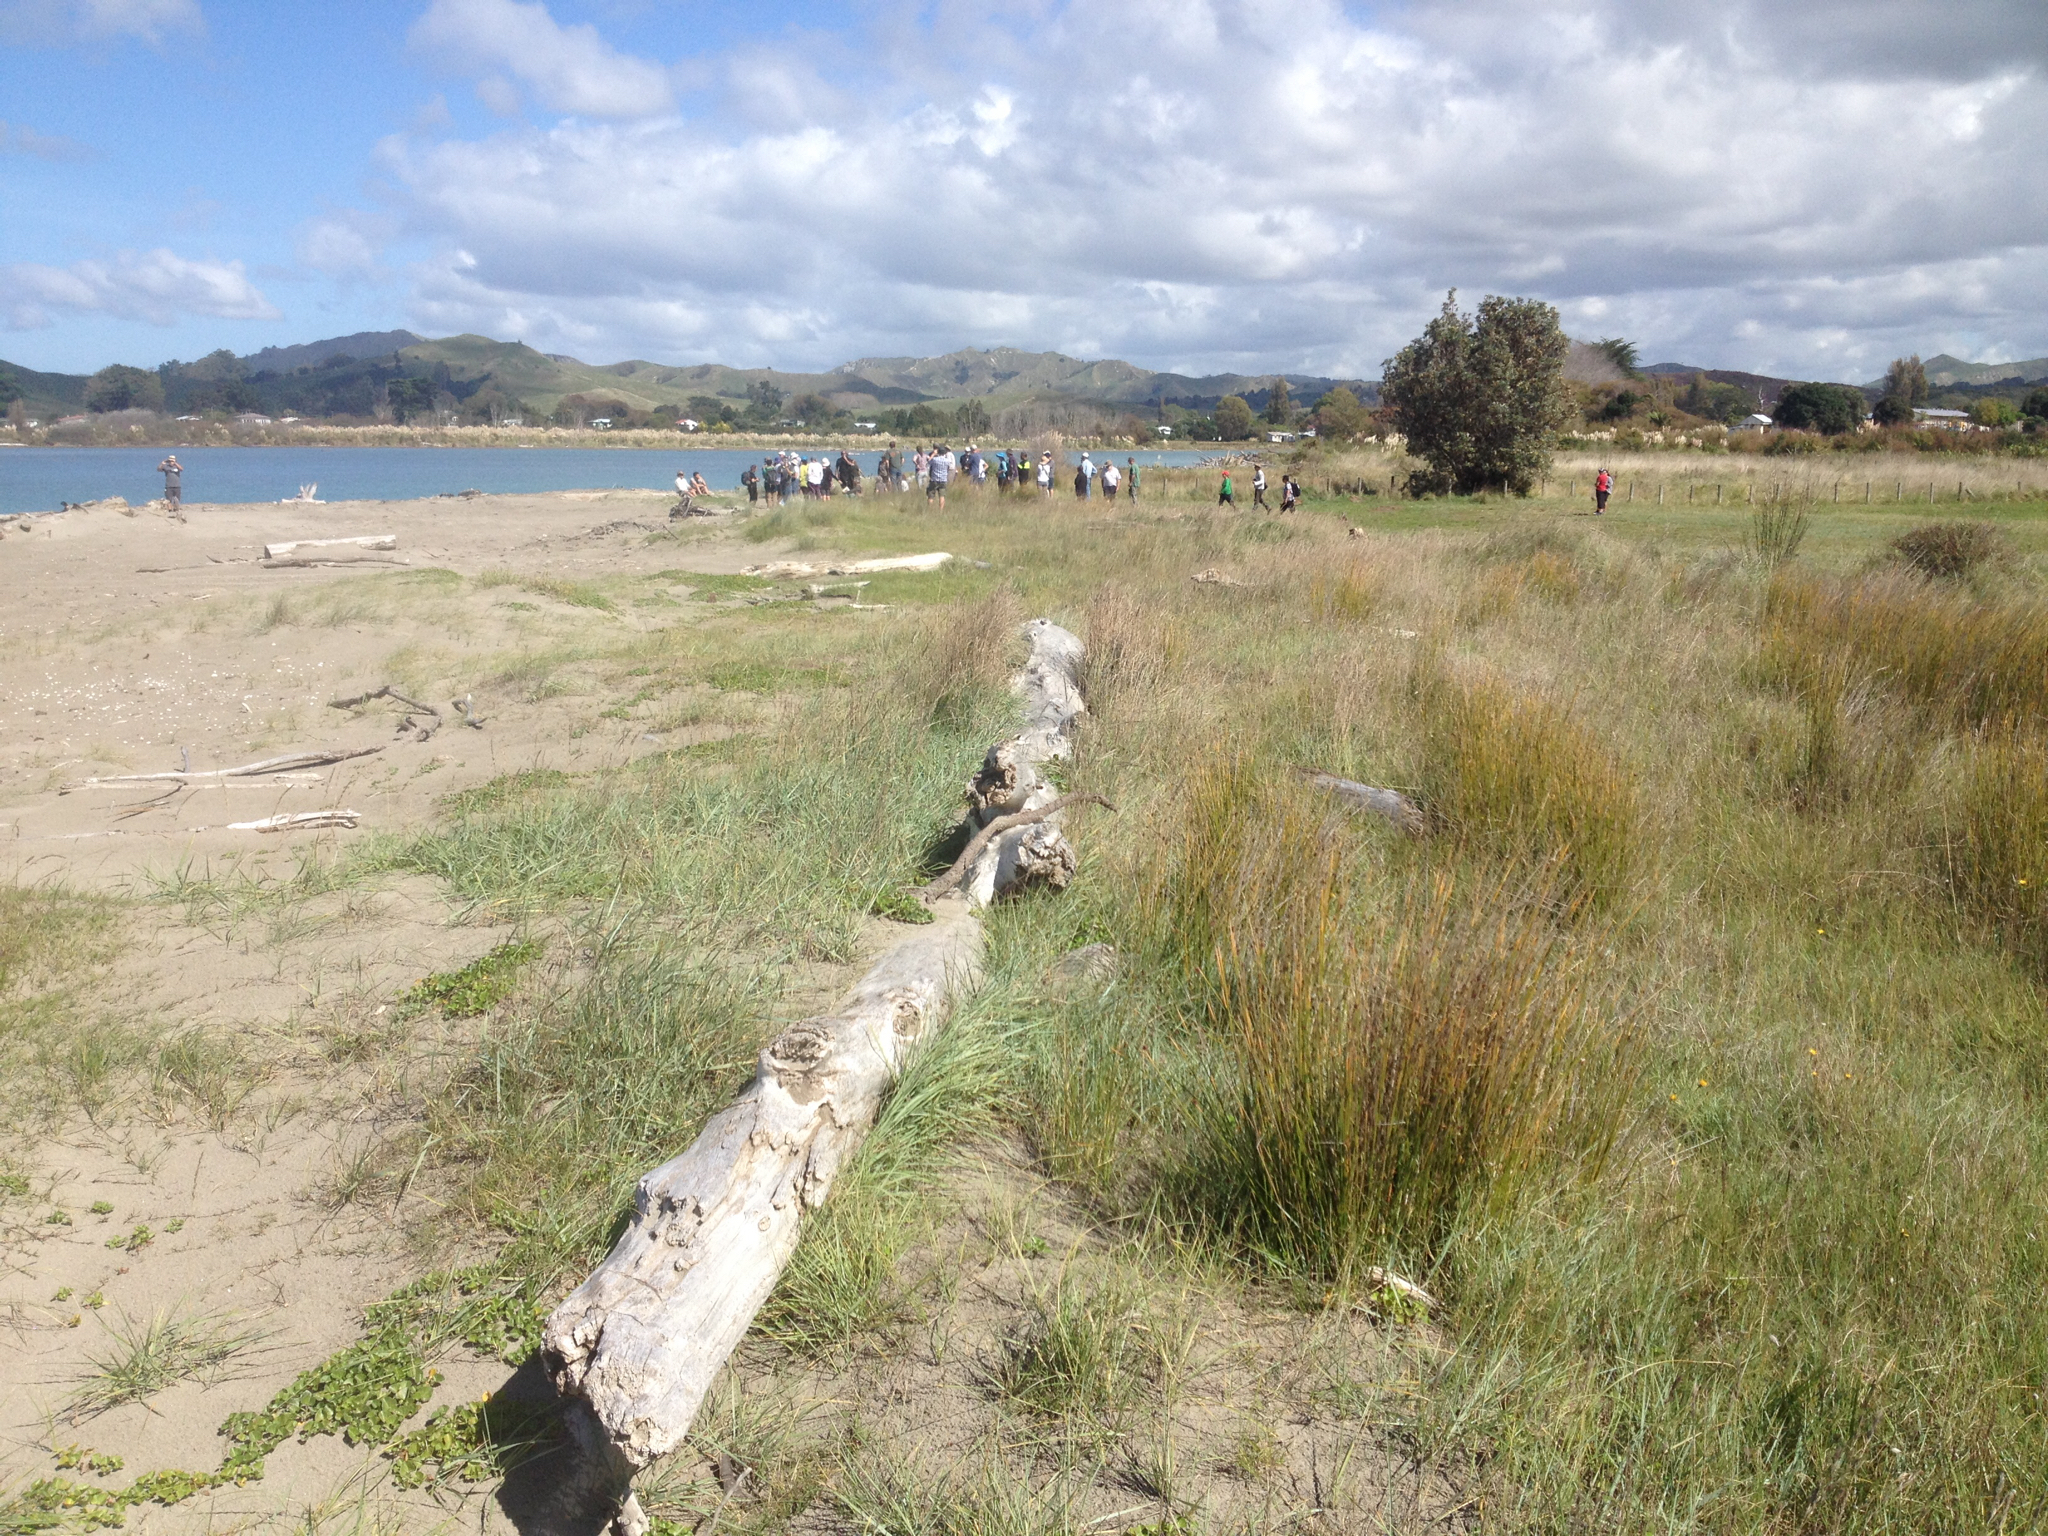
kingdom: Plantae
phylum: Tracheophyta
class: Liliopsida
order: Poales
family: Poaceae
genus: Spinifex
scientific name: Spinifex sericeus
